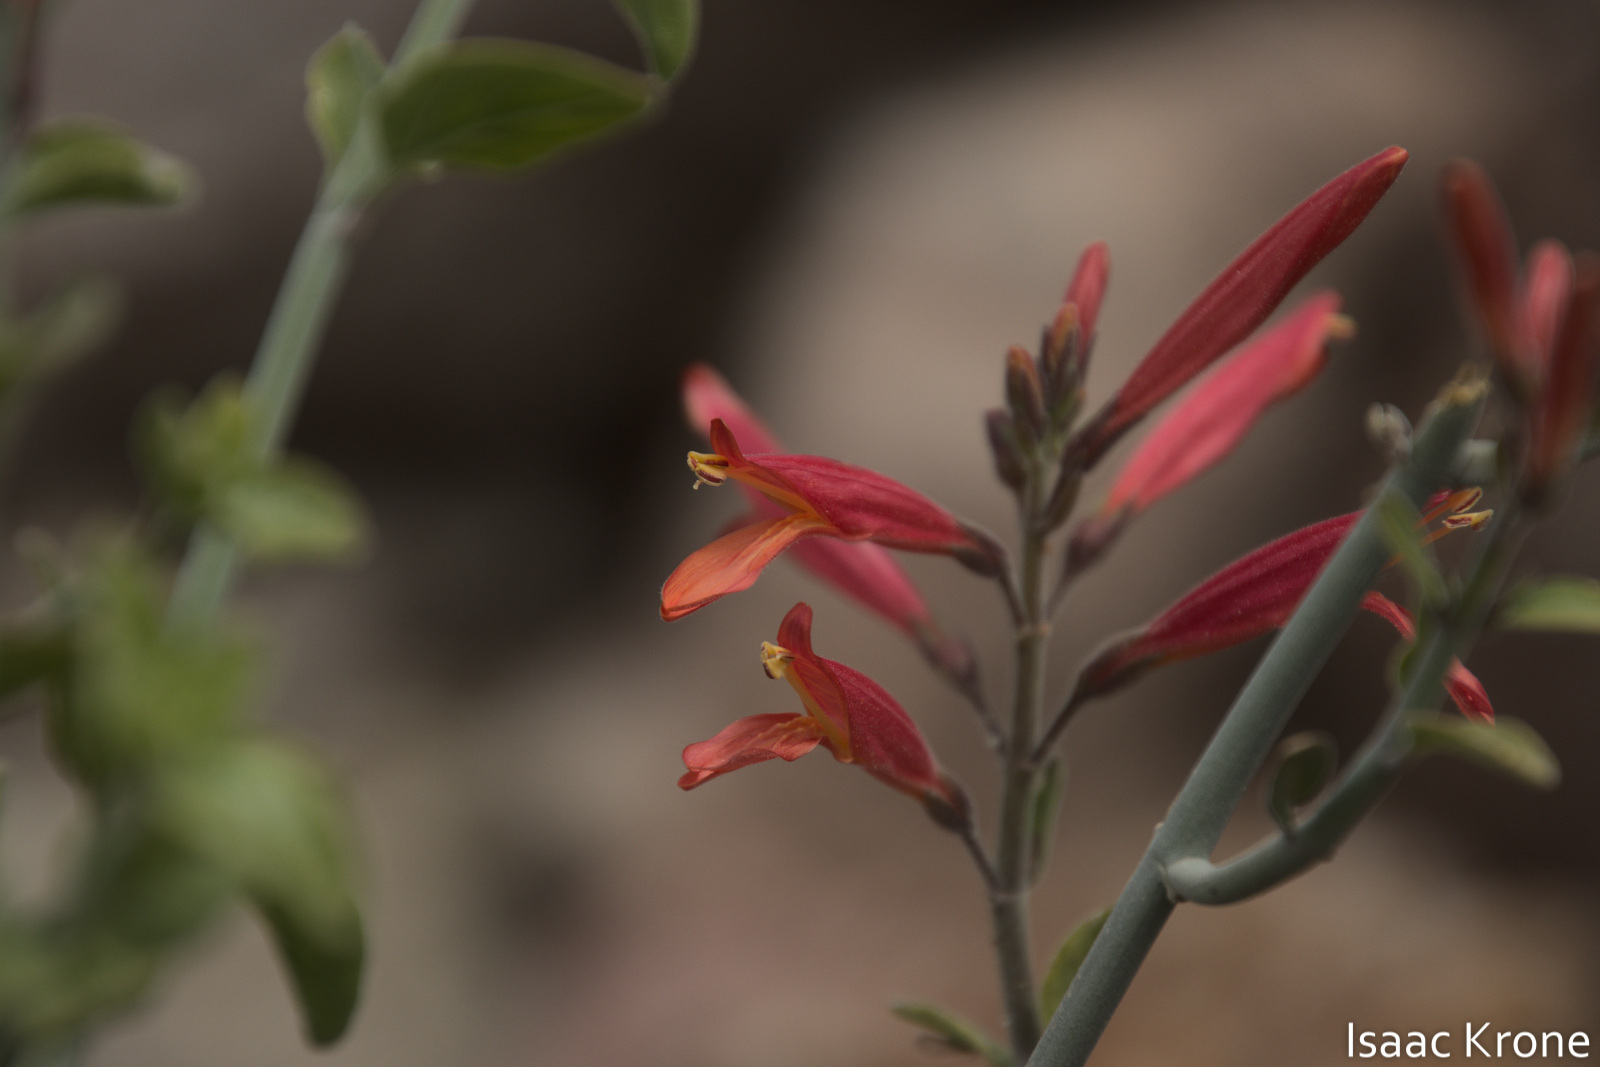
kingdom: Plantae
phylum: Tracheophyta
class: Magnoliopsida
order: Lamiales
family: Acanthaceae
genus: Justicia
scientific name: Justicia californica
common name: Chuparosa-honeysuckle
